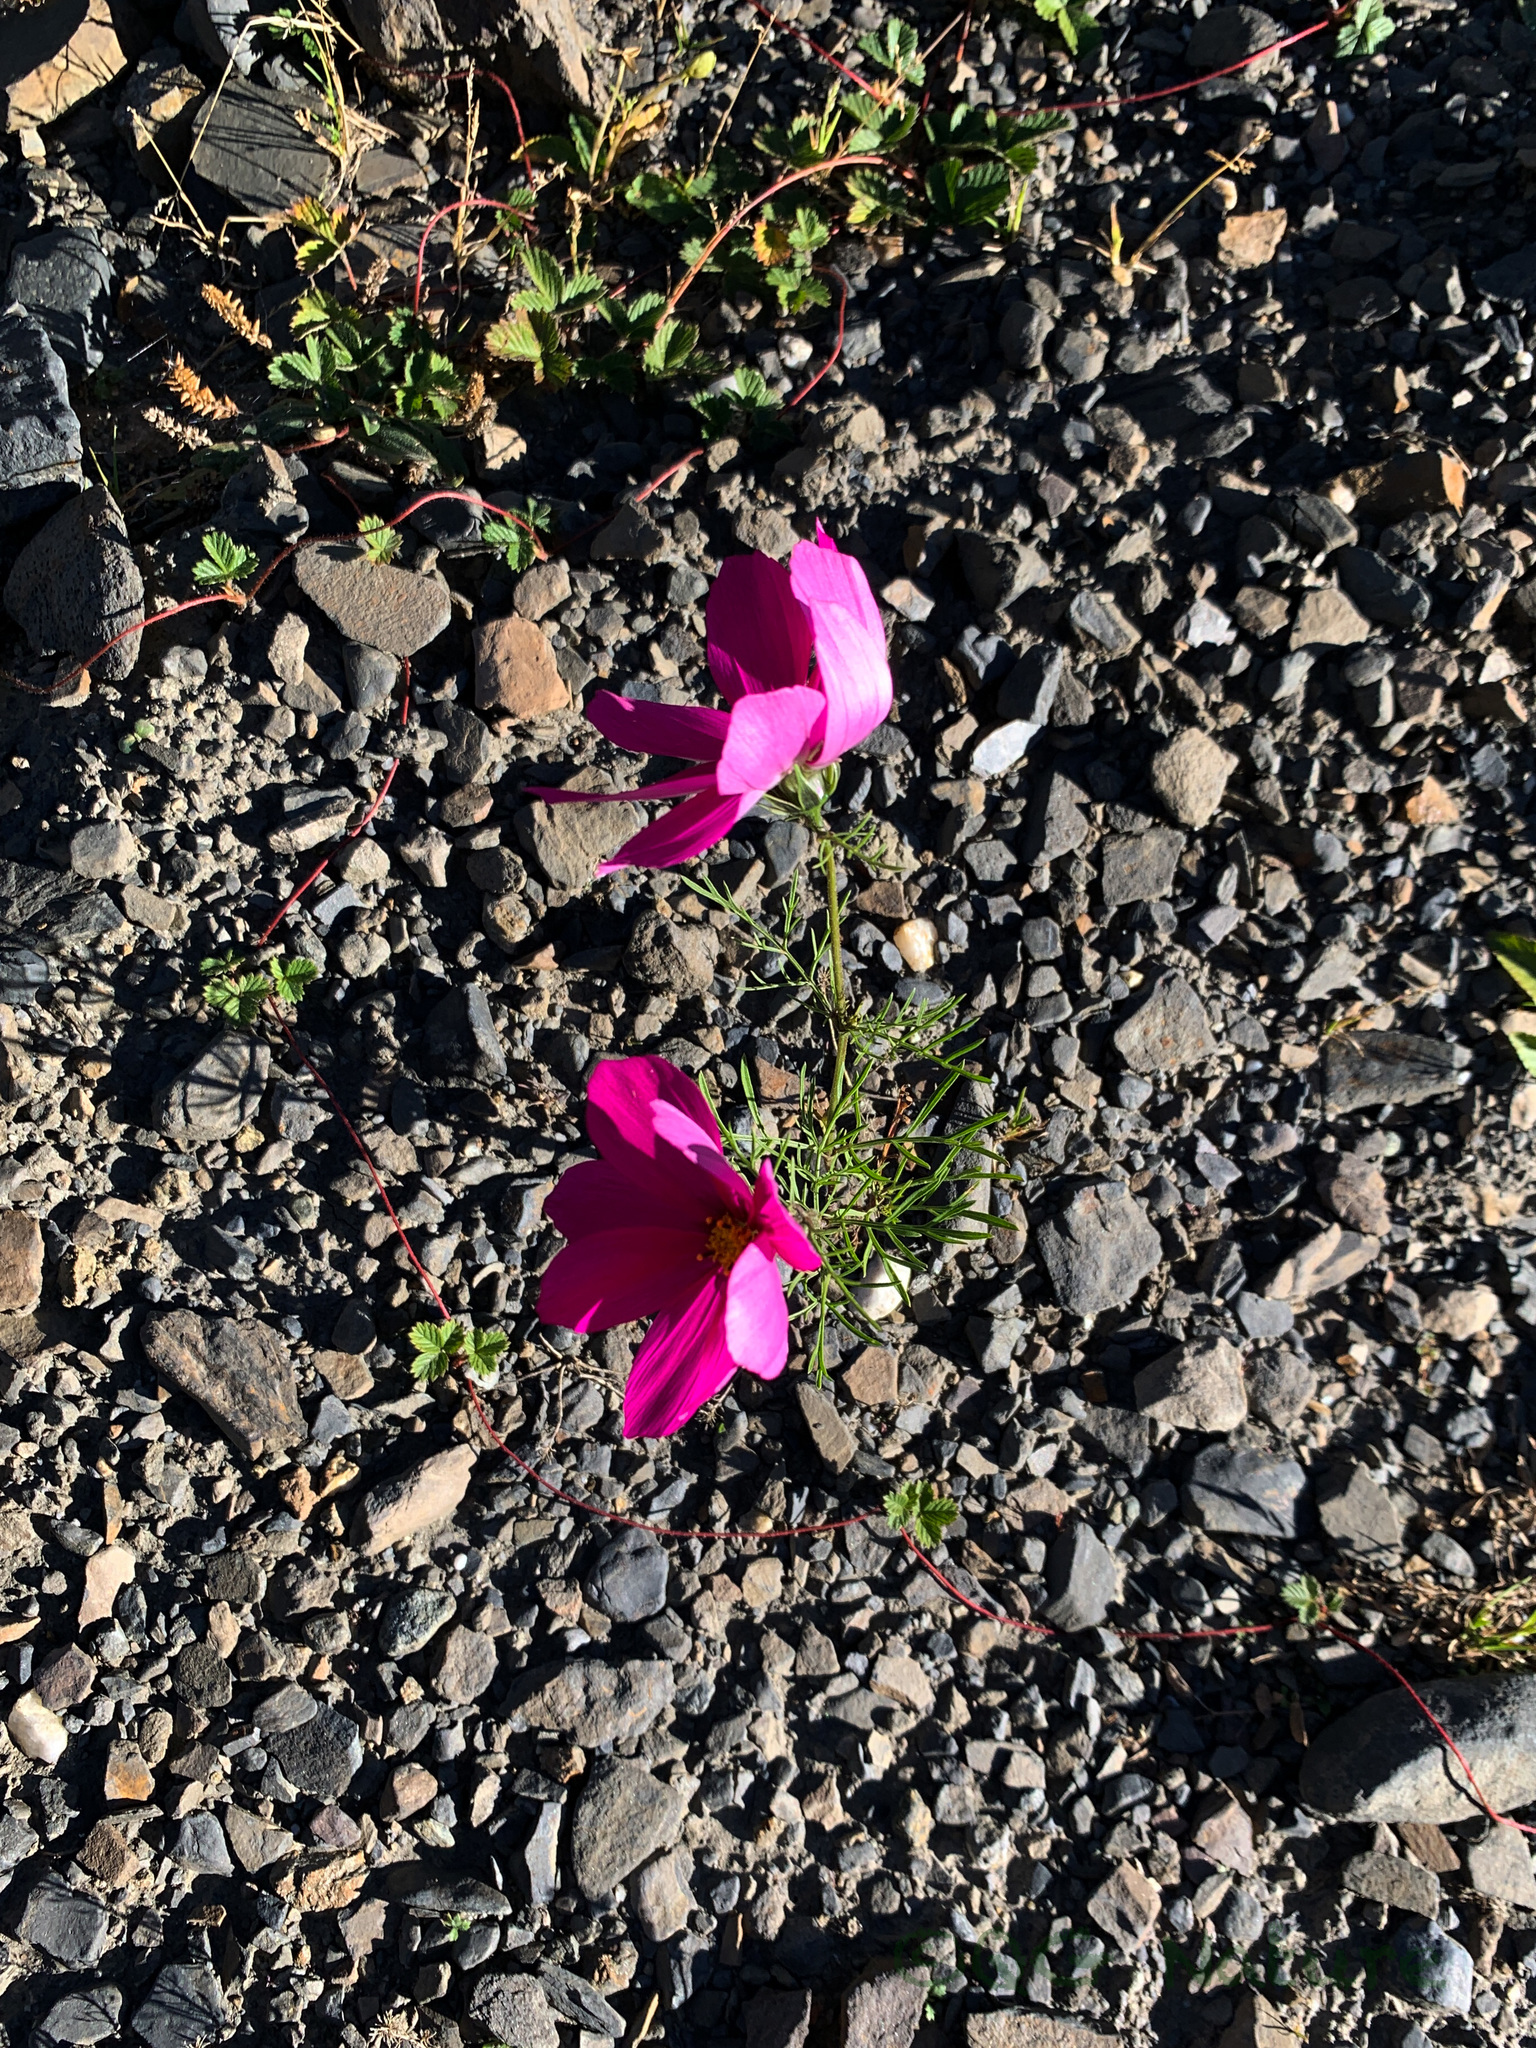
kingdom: Plantae
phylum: Tracheophyta
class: Magnoliopsida
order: Asterales
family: Asteraceae
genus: Cosmos
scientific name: Cosmos bipinnatus
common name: Garden cosmos
